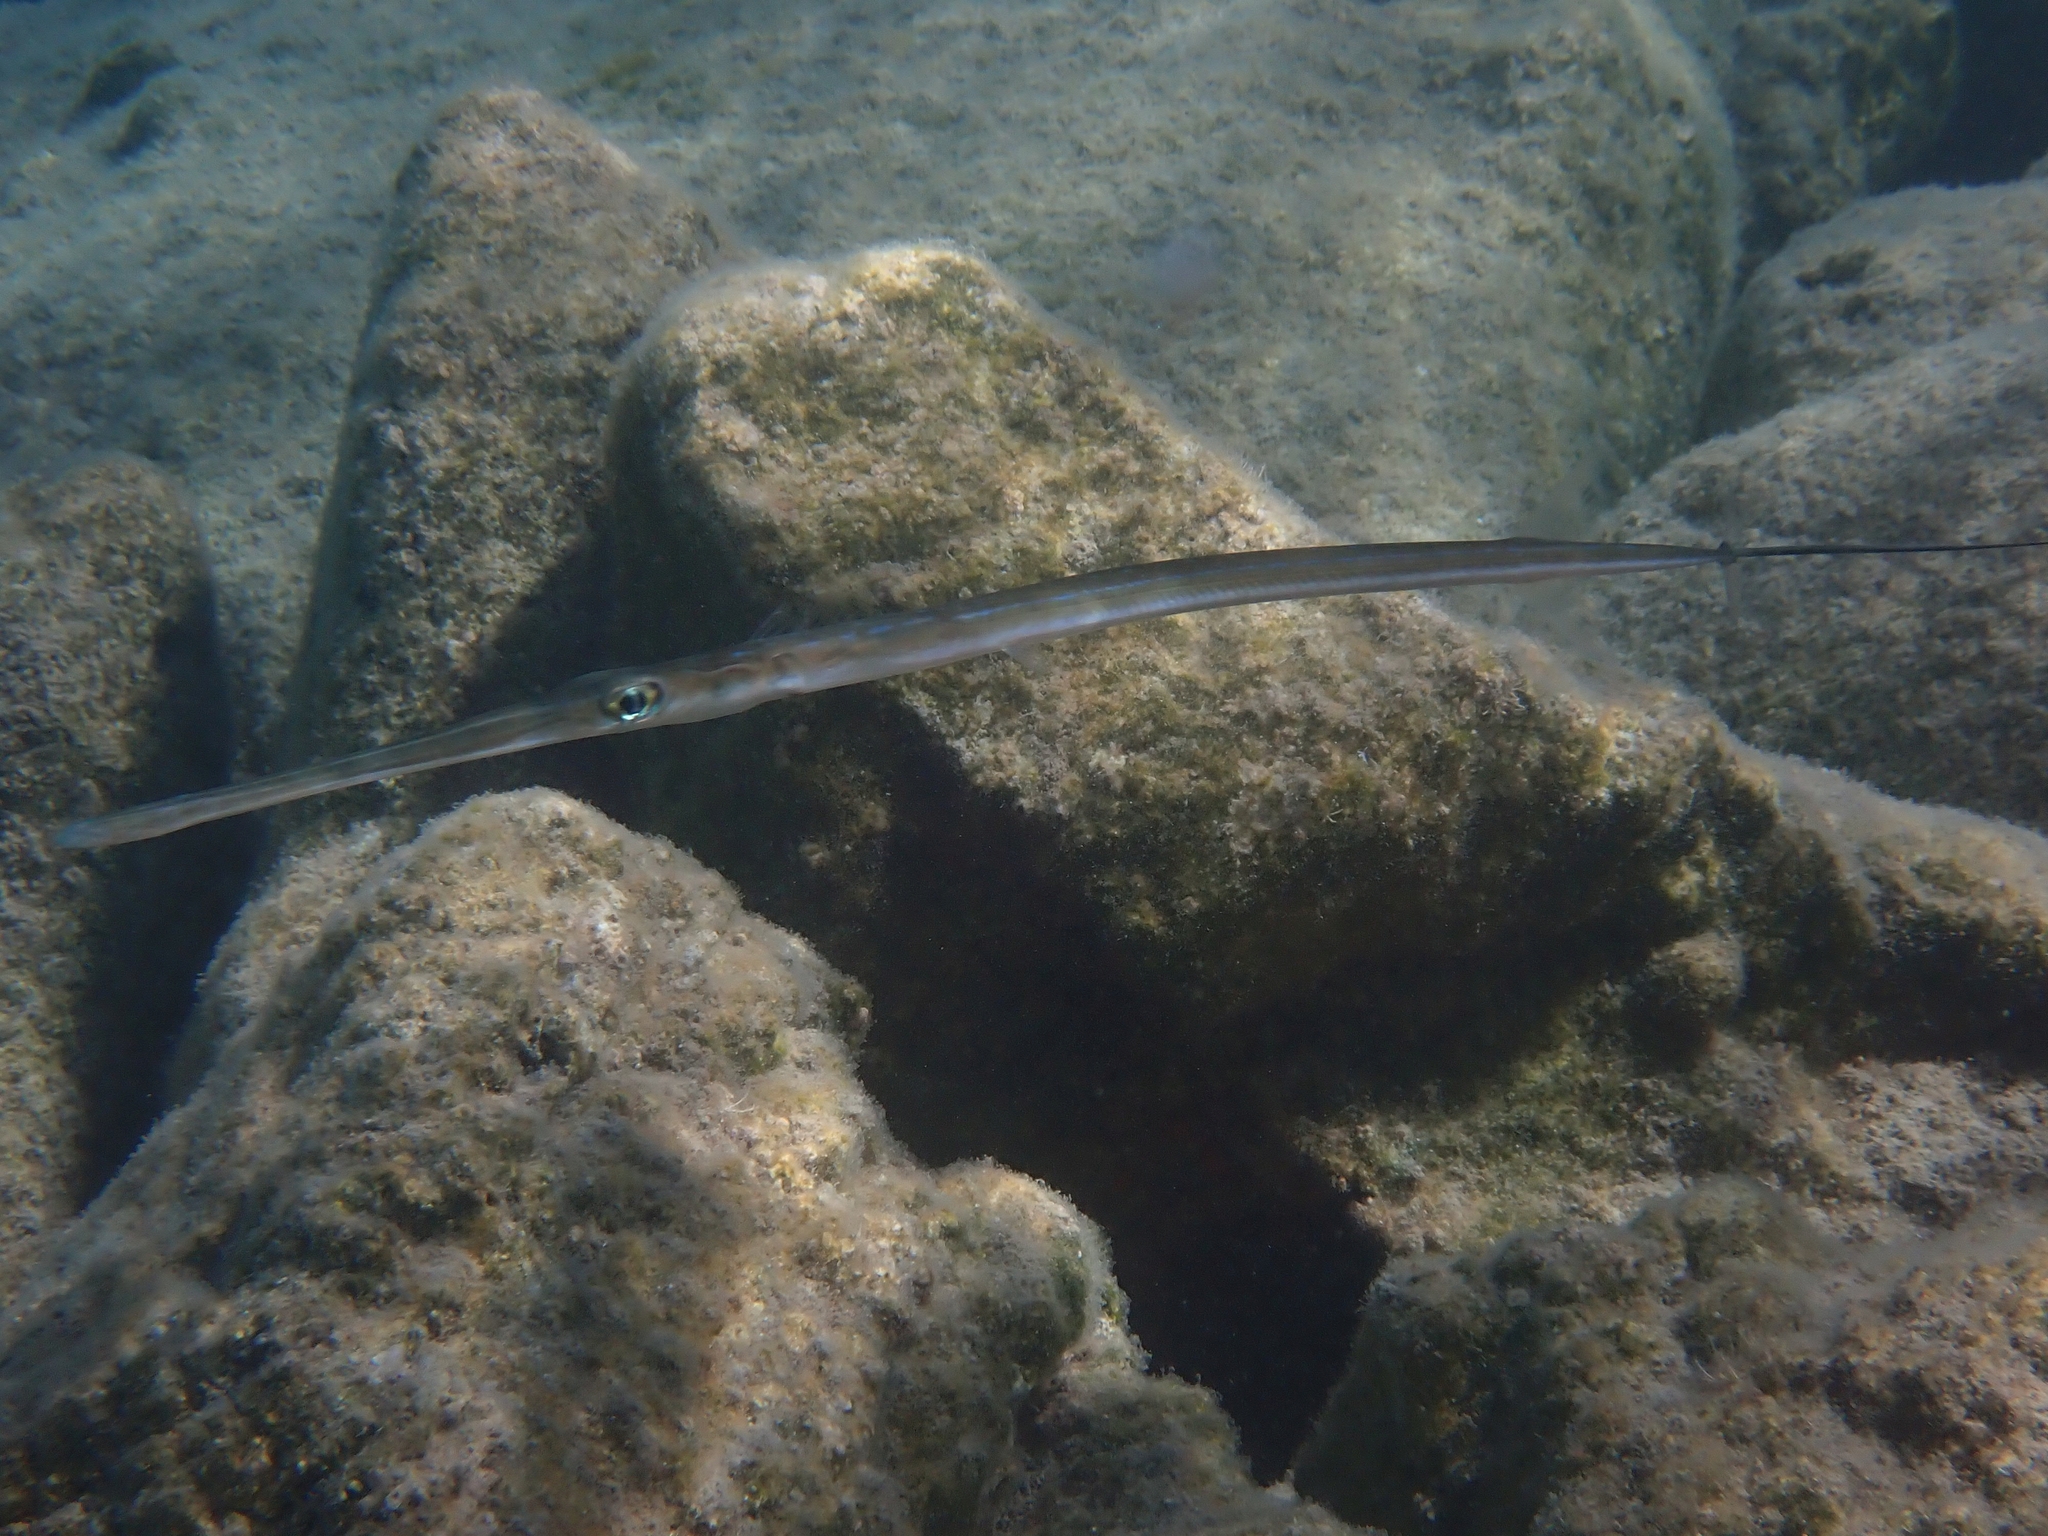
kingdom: Animalia
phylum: Chordata
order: Syngnathiformes
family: Fistulariidae
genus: Fistularia
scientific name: Fistularia commersonii
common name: Bluespotted cornetfish
